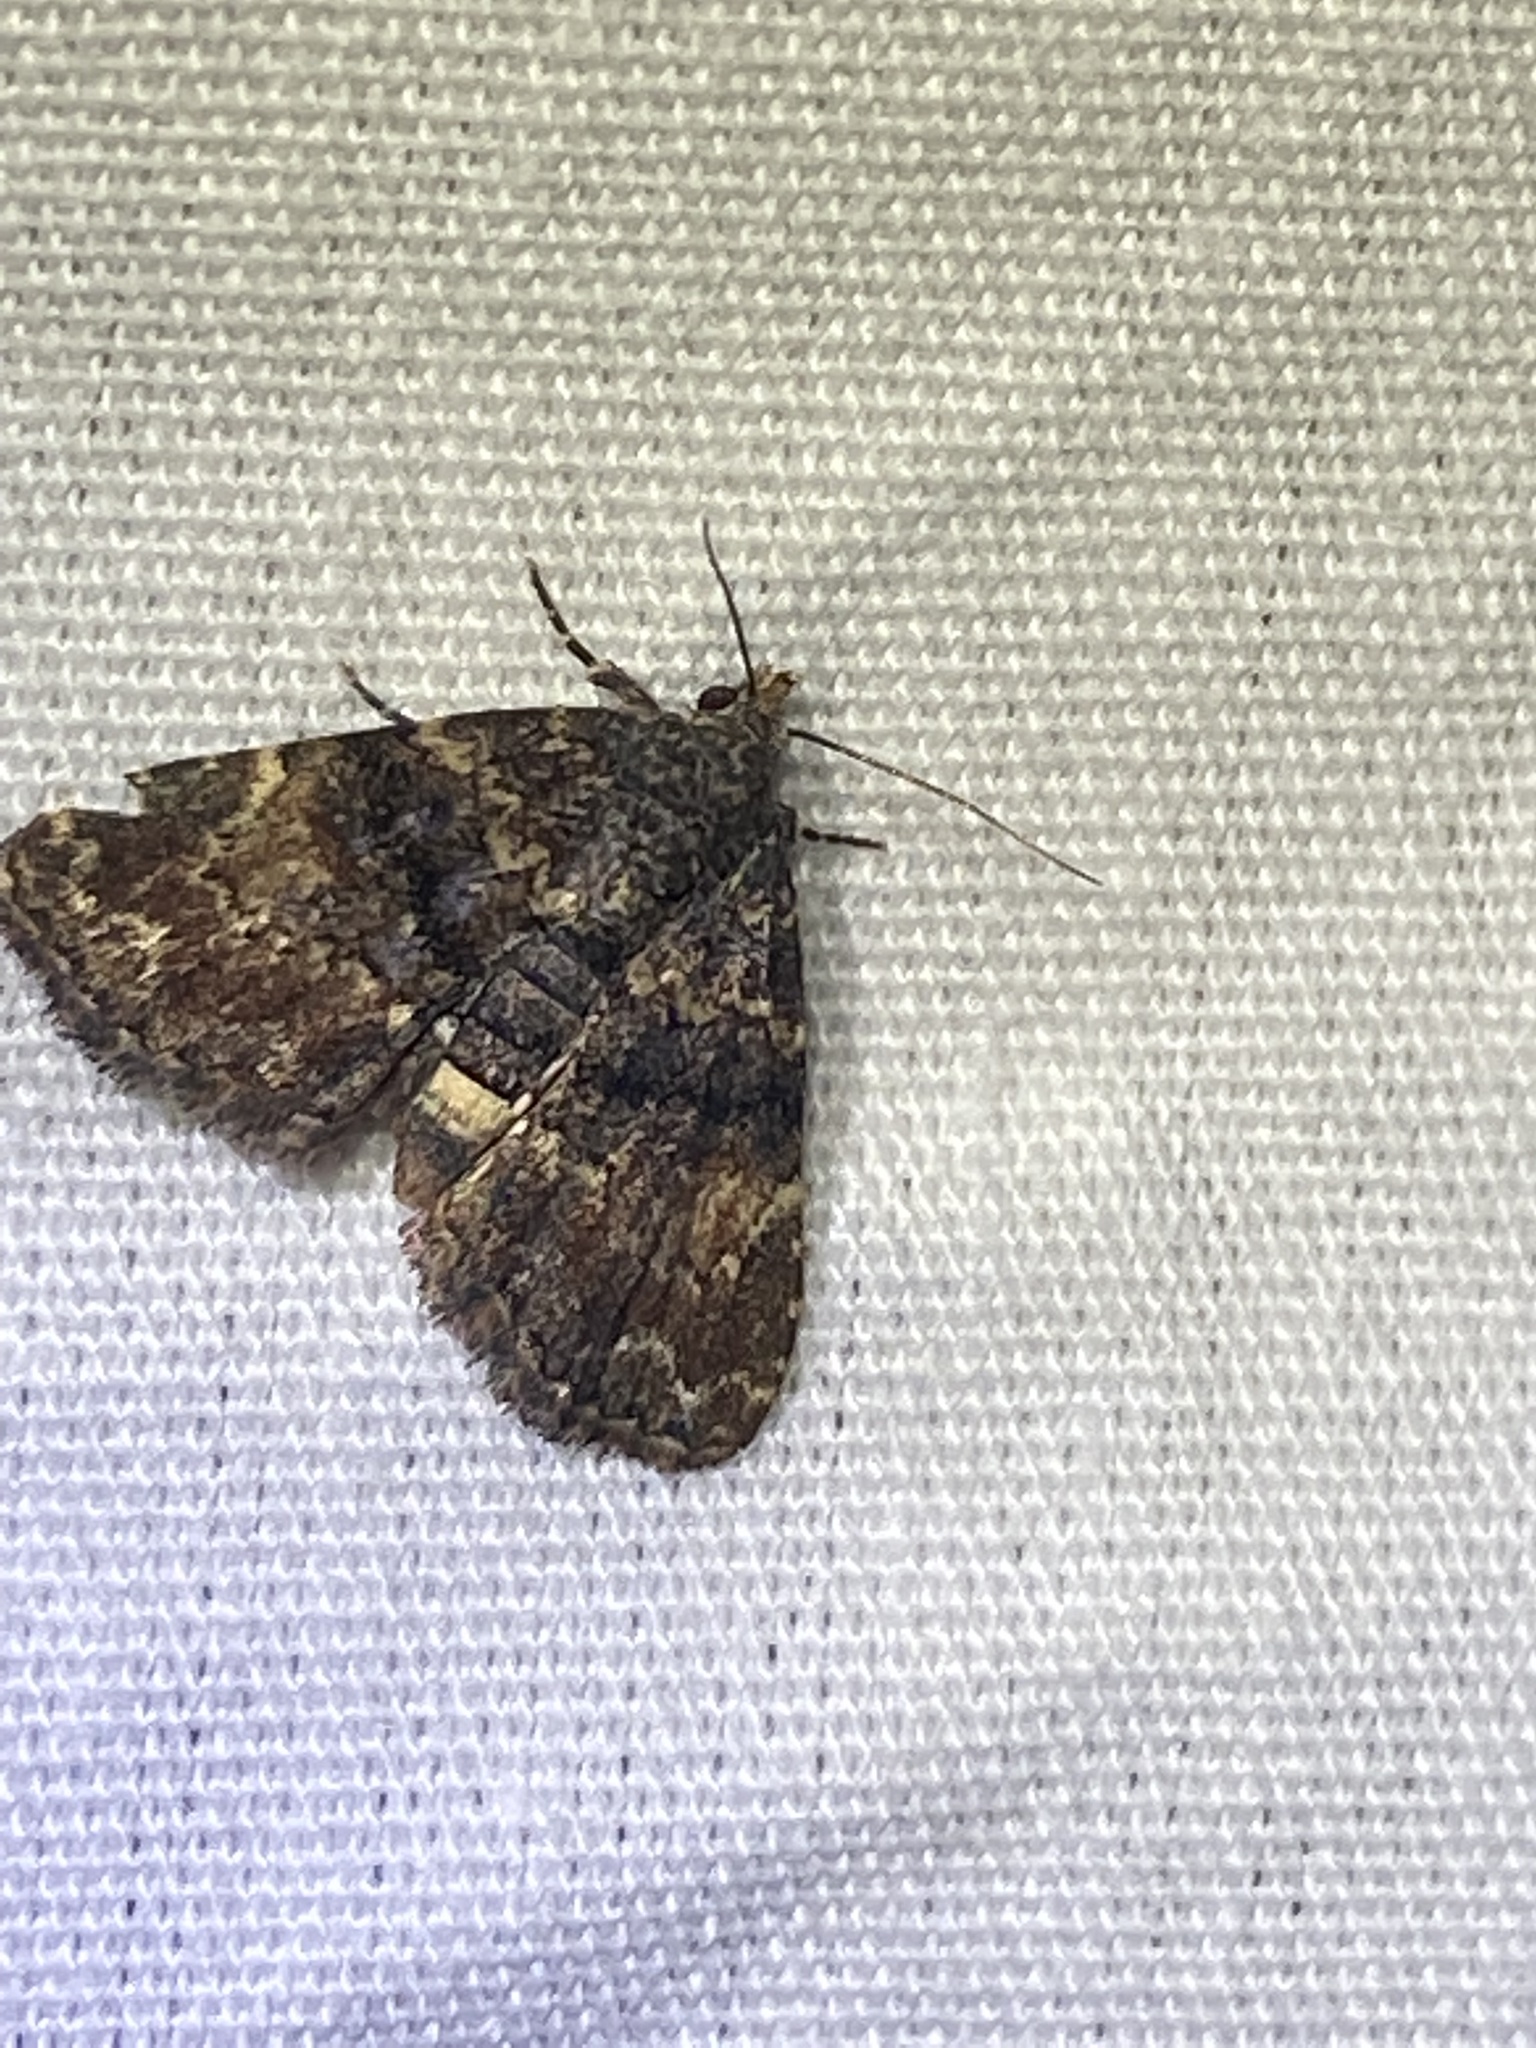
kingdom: Animalia
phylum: Arthropoda
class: Insecta
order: Lepidoptera
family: Erebidae
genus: Metalectra
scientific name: Metalectra richardsi
